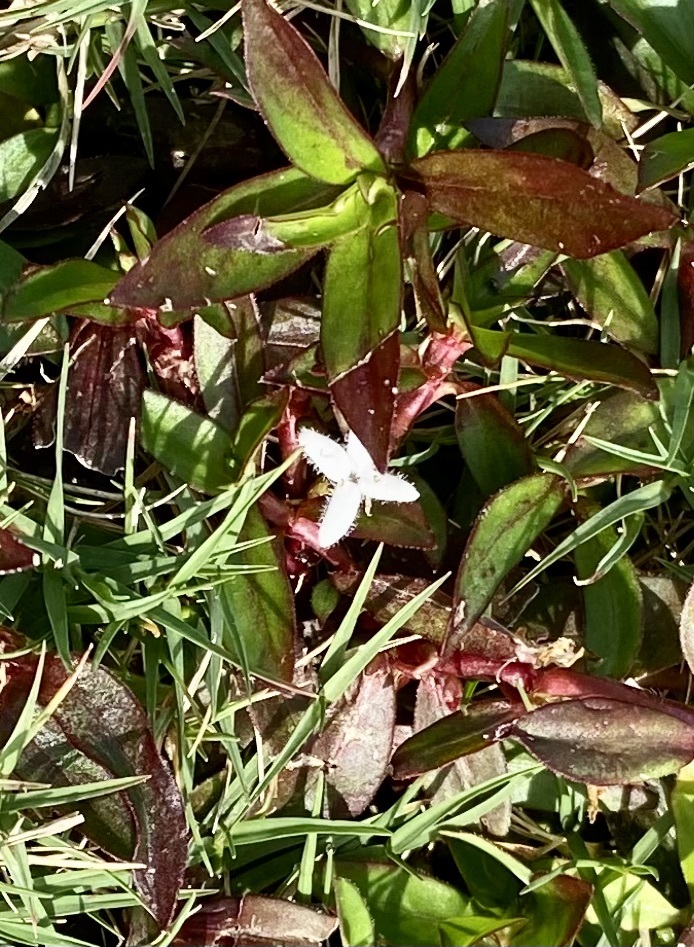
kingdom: Plantae
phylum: Tracheophyta
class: Magnoliopsida
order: Gentianales
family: Rubiaceae
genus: Diodia
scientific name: Diodia virginiana
